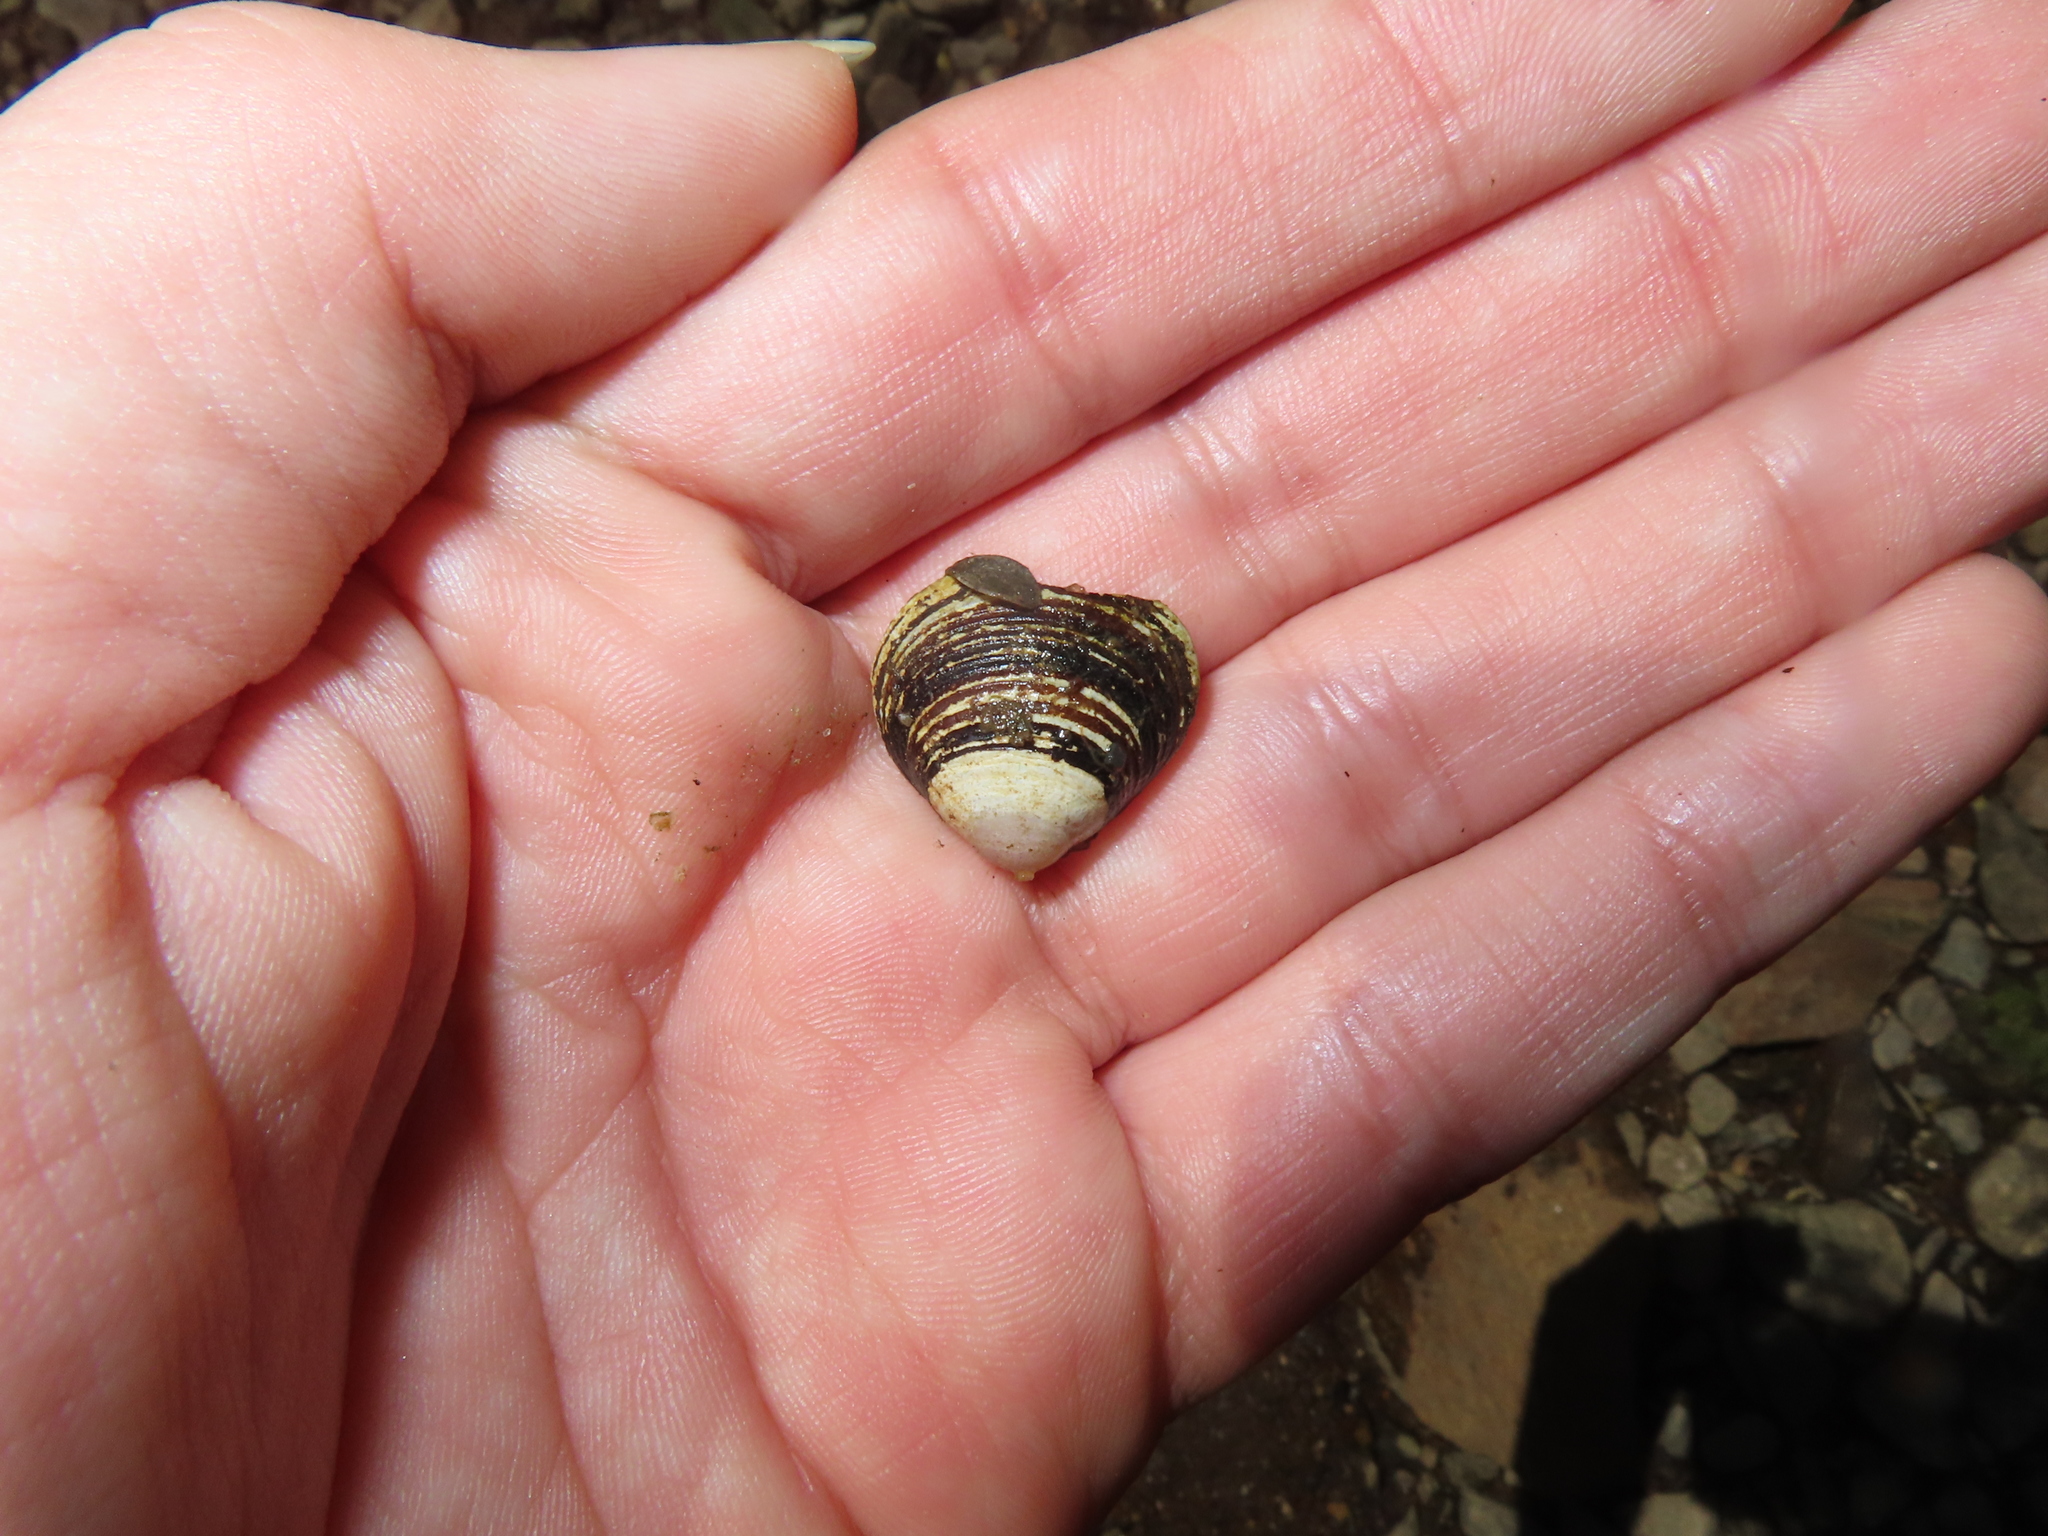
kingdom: Animalia
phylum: Mollusca
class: Bivalvia
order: Venerida
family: Cyrenidae
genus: Corbicula
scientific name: Corbicula fluminea
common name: Asian clam
